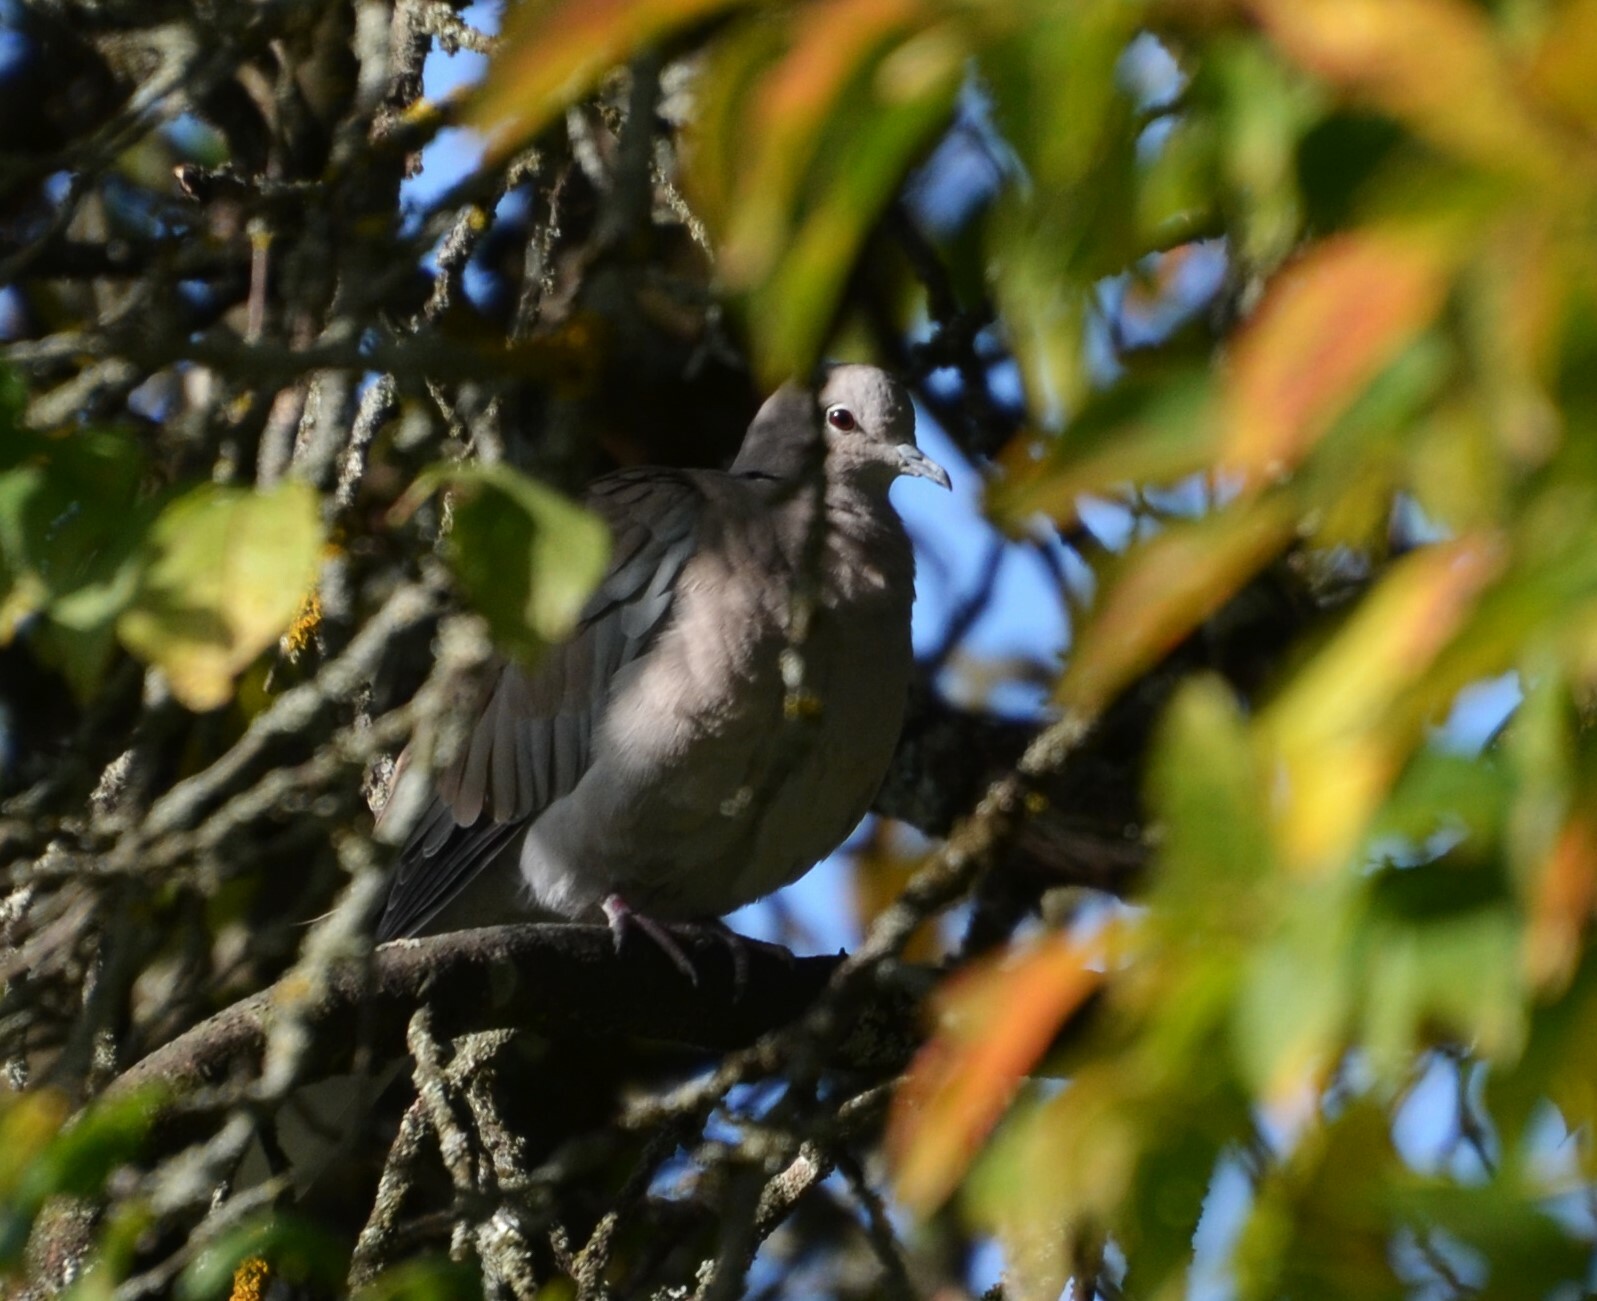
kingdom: Animalia
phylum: Chordata
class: Aves
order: Columbiformes
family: Columbidae
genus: Streptopelia
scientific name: Streptopelia decaocto
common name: Eurasian collared dove
